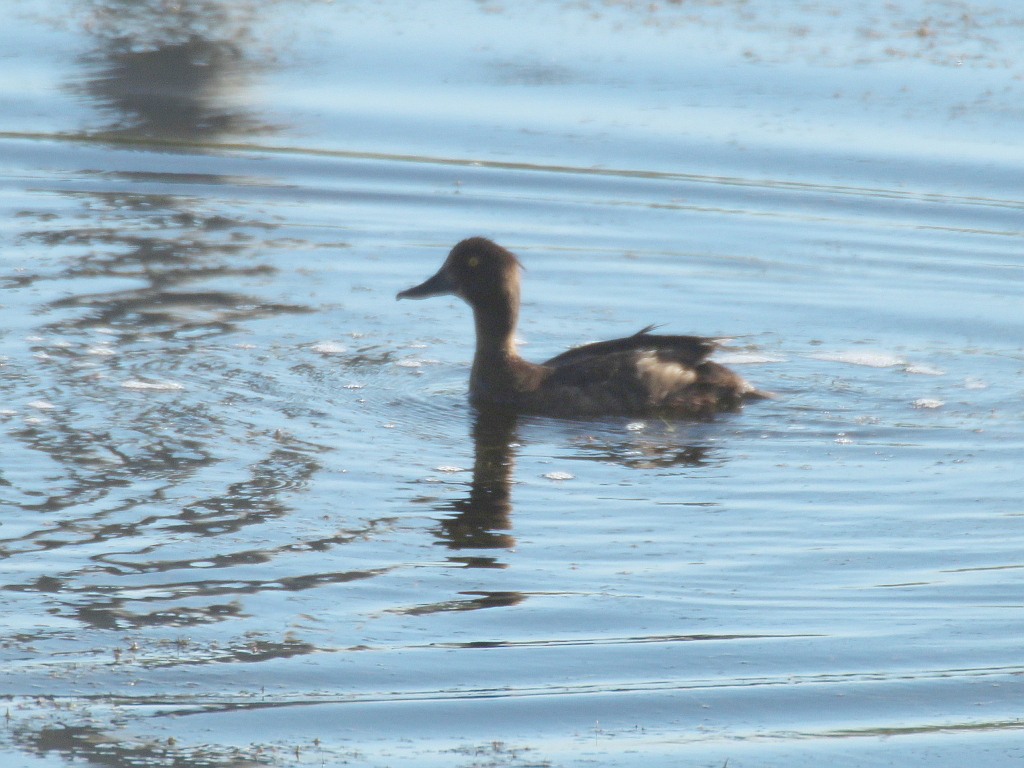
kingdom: Animalia
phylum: Chordata
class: Aves
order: Anseriformes
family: Anatidae
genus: Aythya
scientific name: Aythya fuligula
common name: Tufted duck
